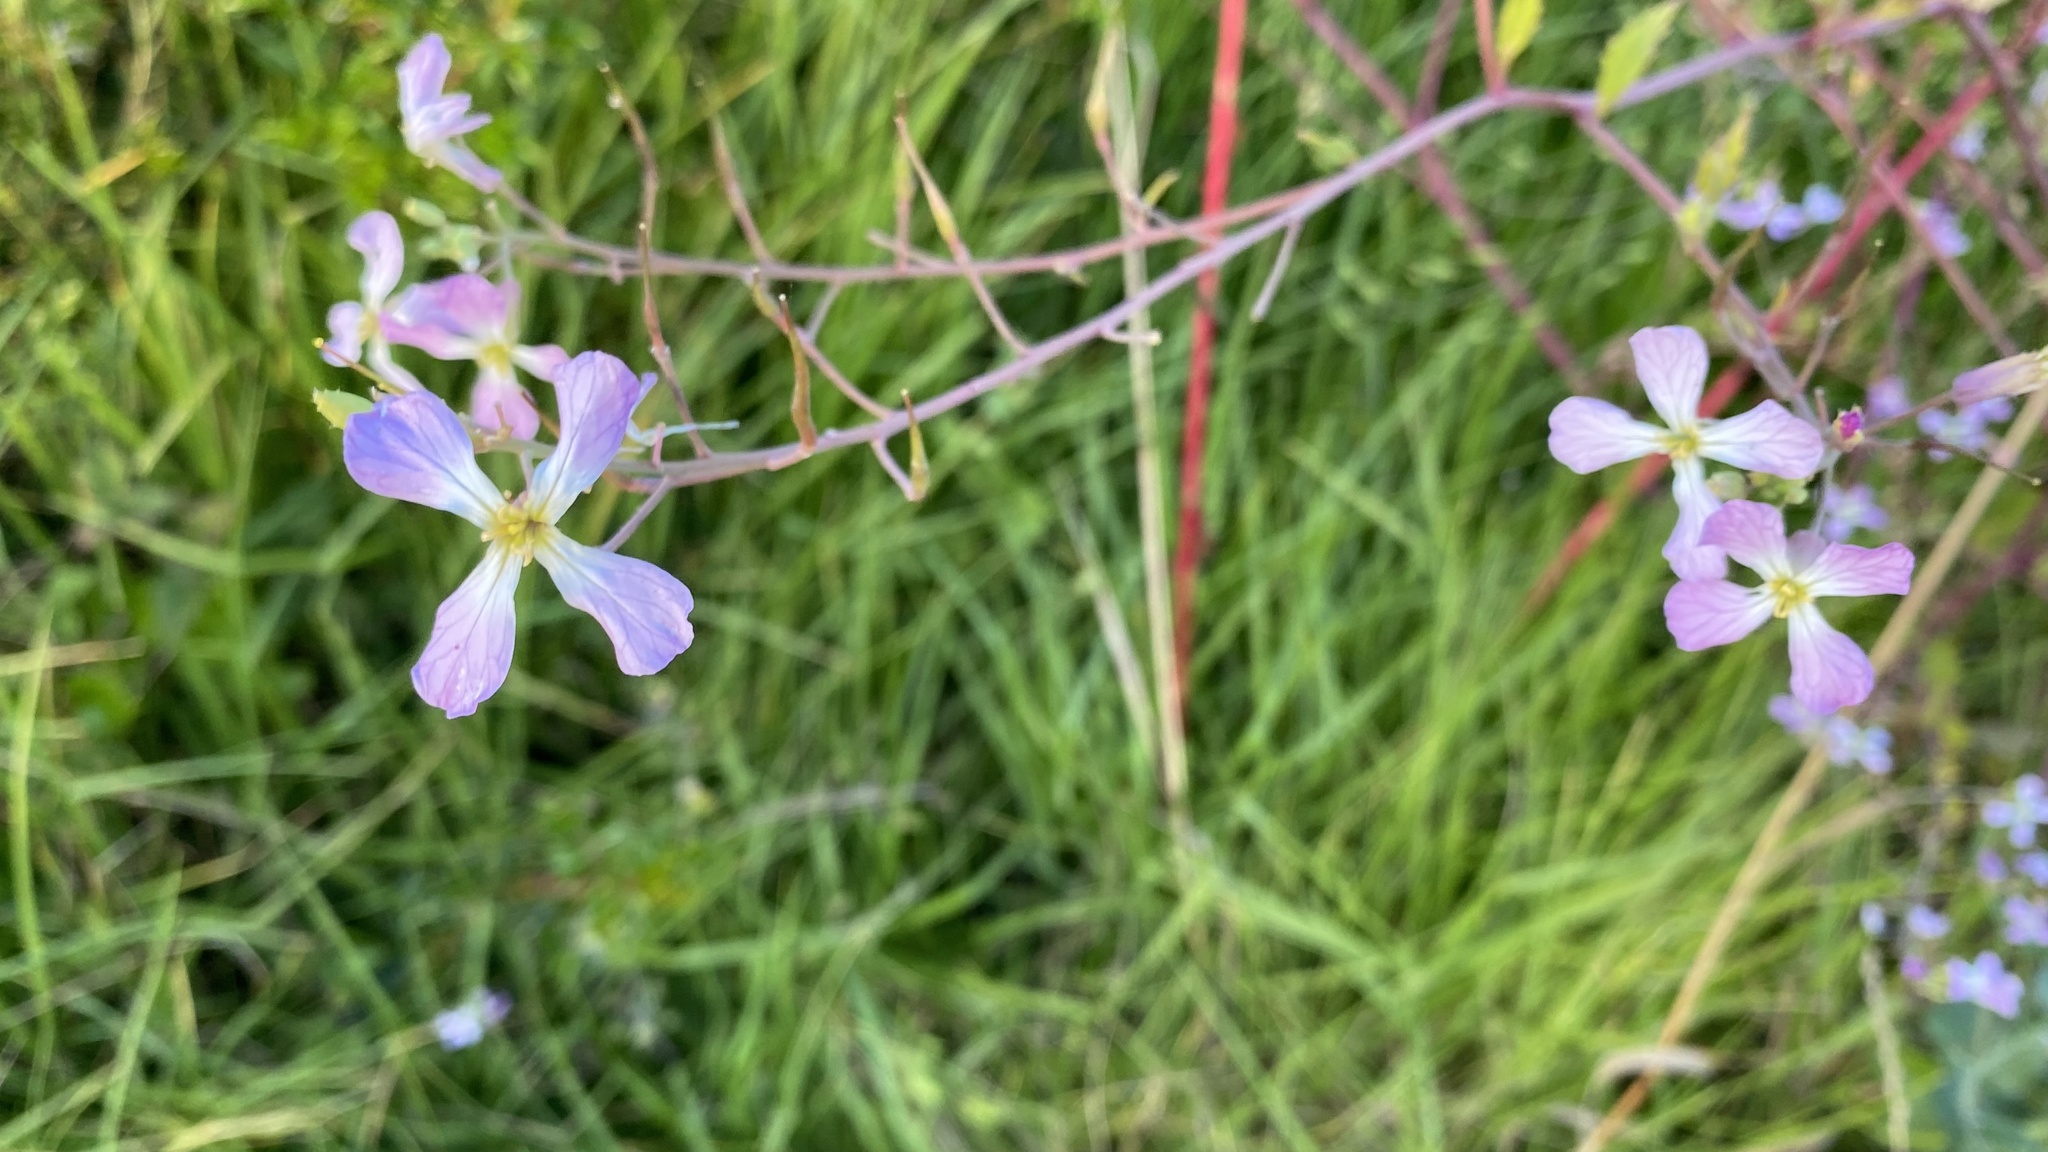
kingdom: Plantae
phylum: Tracheophyta
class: Magnoliopsida
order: Brassicales
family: Brassicaceae
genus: Raphanus
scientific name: Raphanus sativus
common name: Cultivated radish
